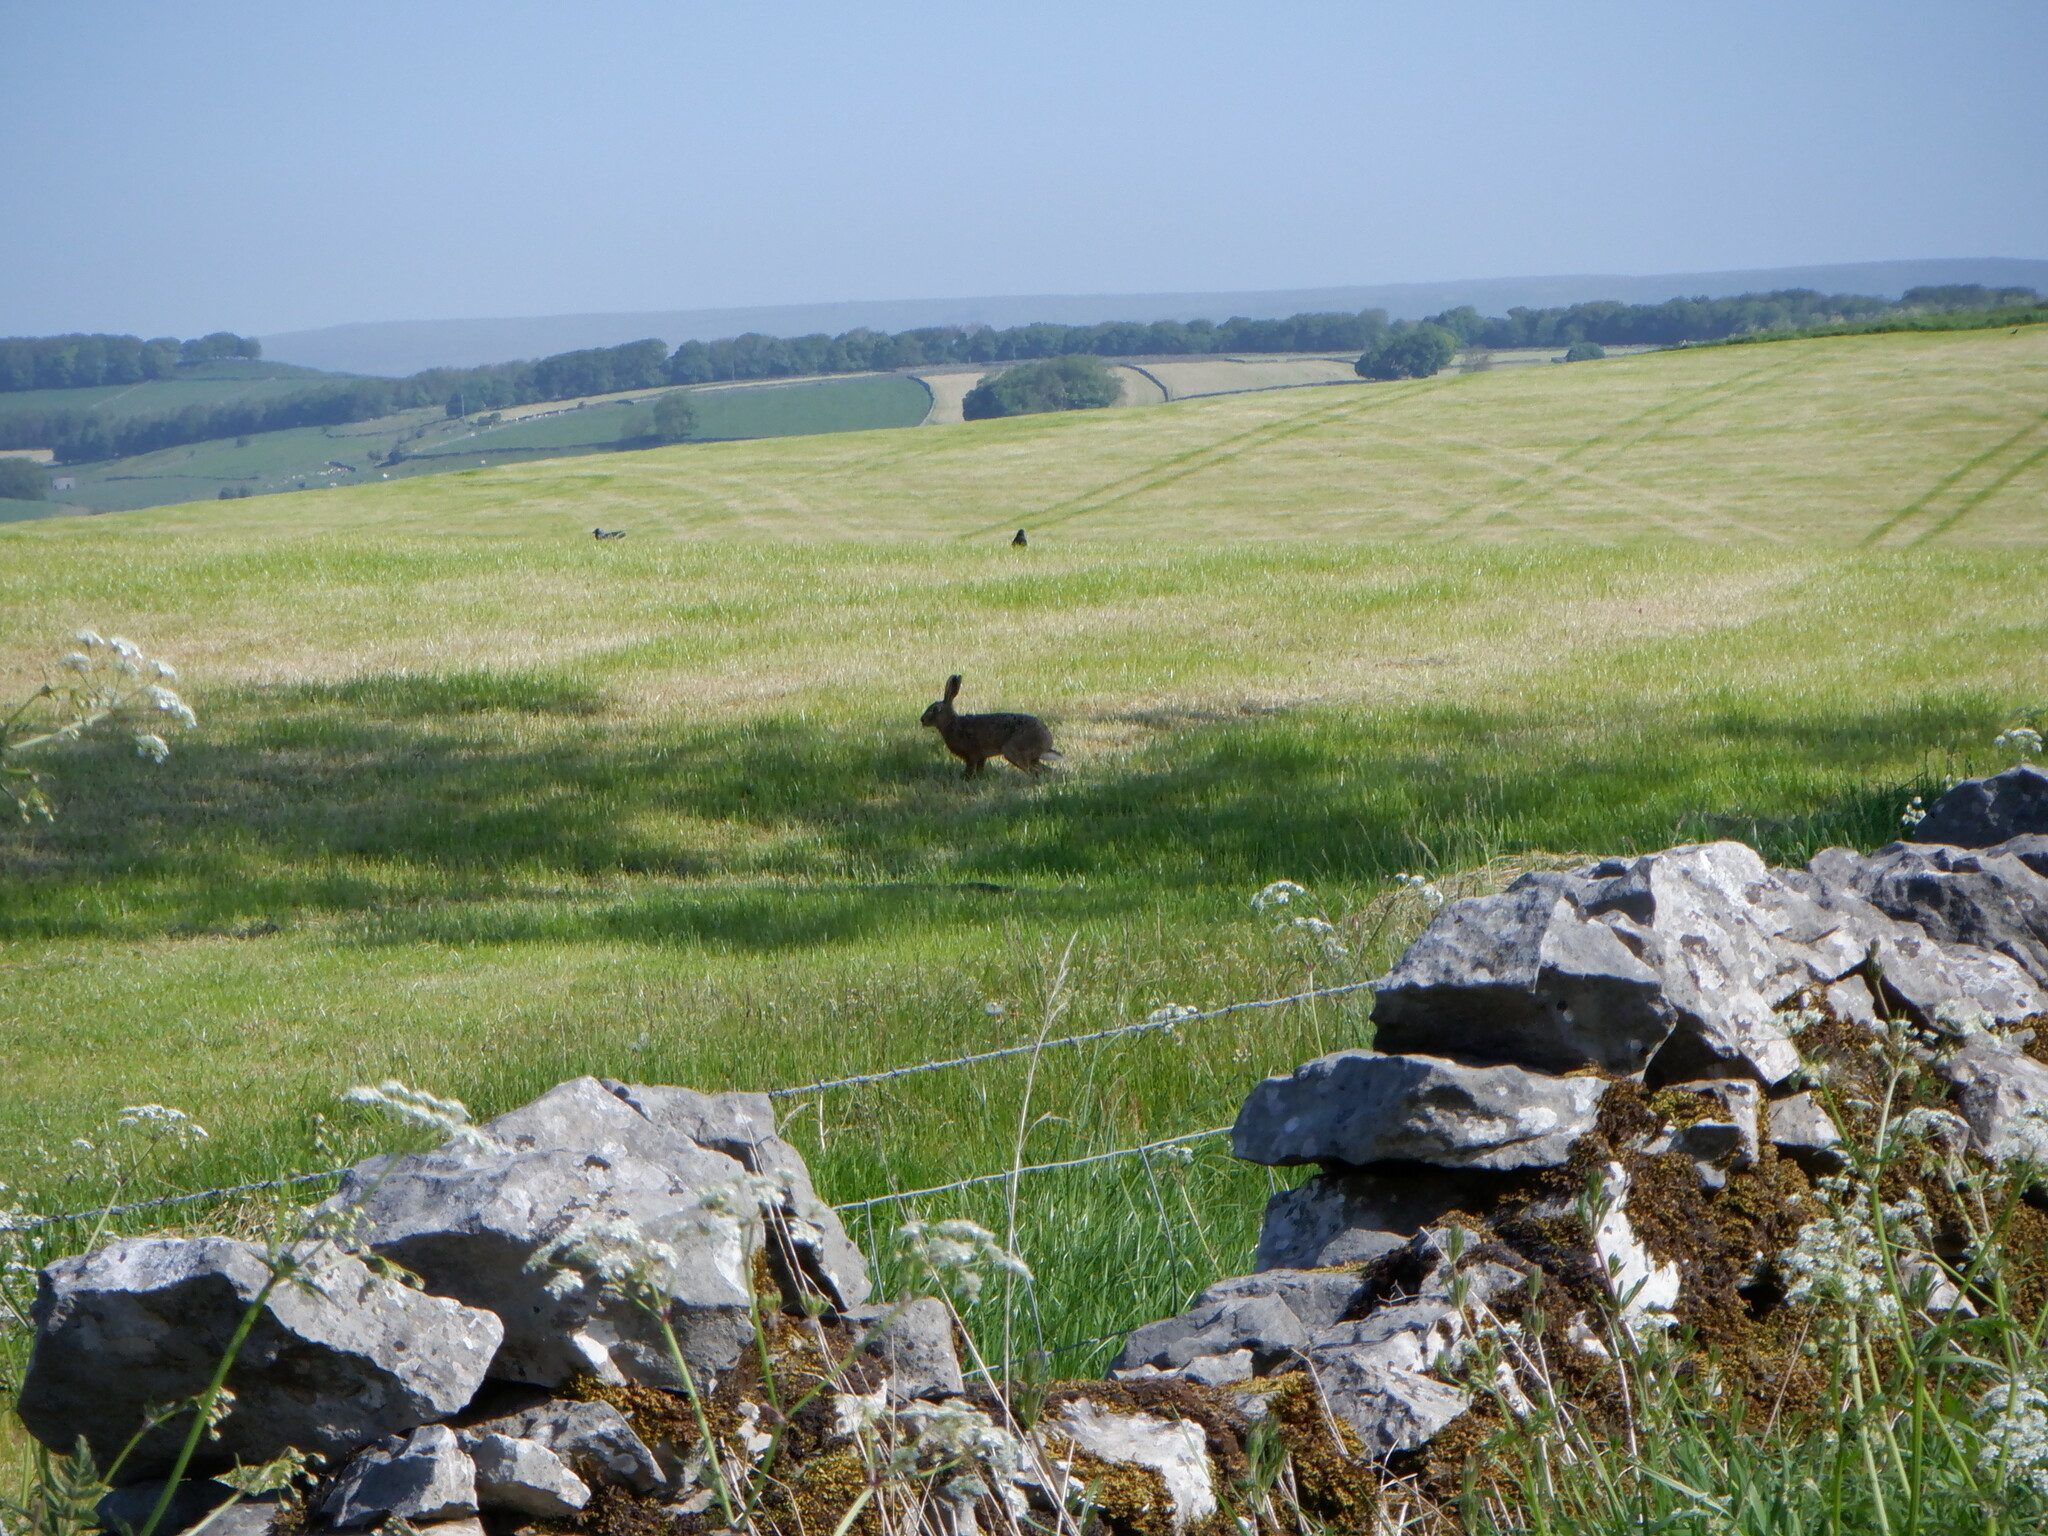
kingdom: Animalia
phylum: Chordata
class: Mammalia
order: Lagomorpha
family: Leporidae
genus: Lepus
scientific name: Lepus europaeus
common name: European hare
